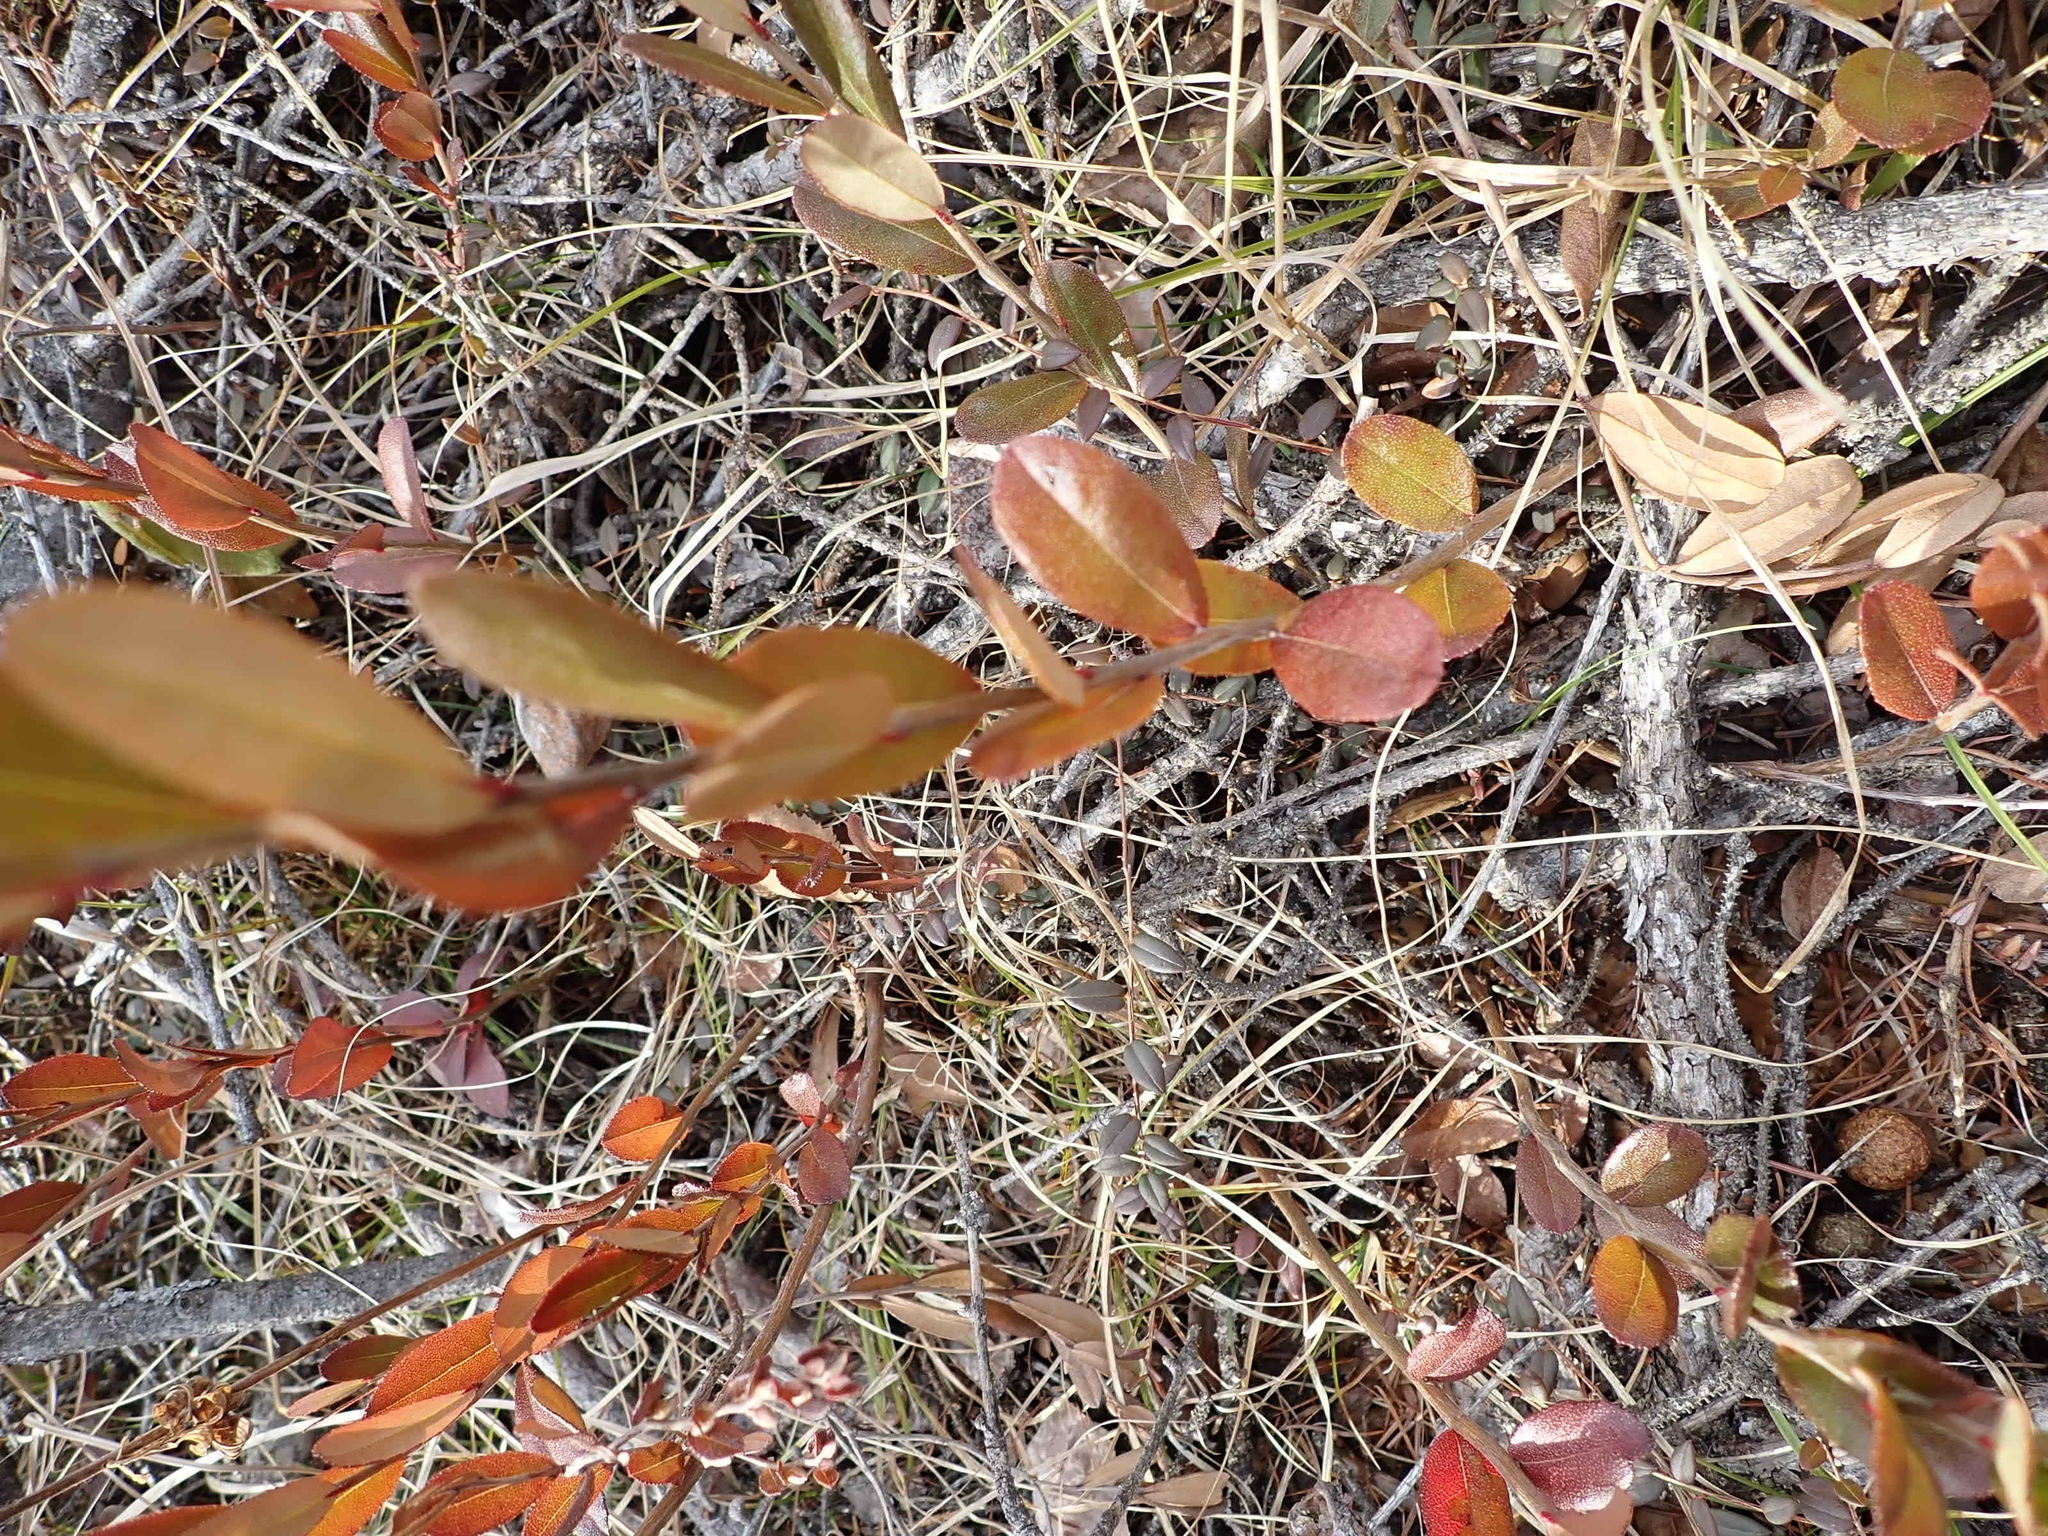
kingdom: Plantae
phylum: Tracheophyta
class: Magnoliopsida
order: Ericales
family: Ericaceae
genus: Chamaedaphne
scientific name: Chamaedaphne calyculata
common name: Leatherleaf
